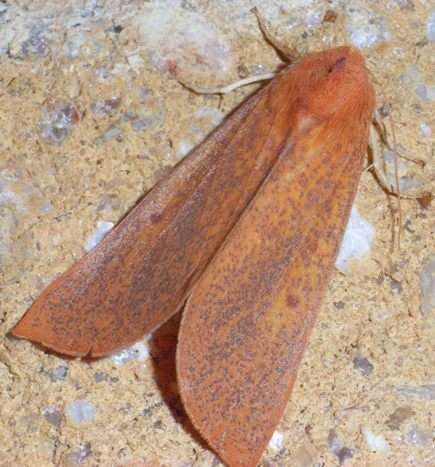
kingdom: Animalia
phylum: Arthropoda
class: Insecta
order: Lepidoptera
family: Geometridae
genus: Plesanemma
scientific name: Plesanemma fucata
